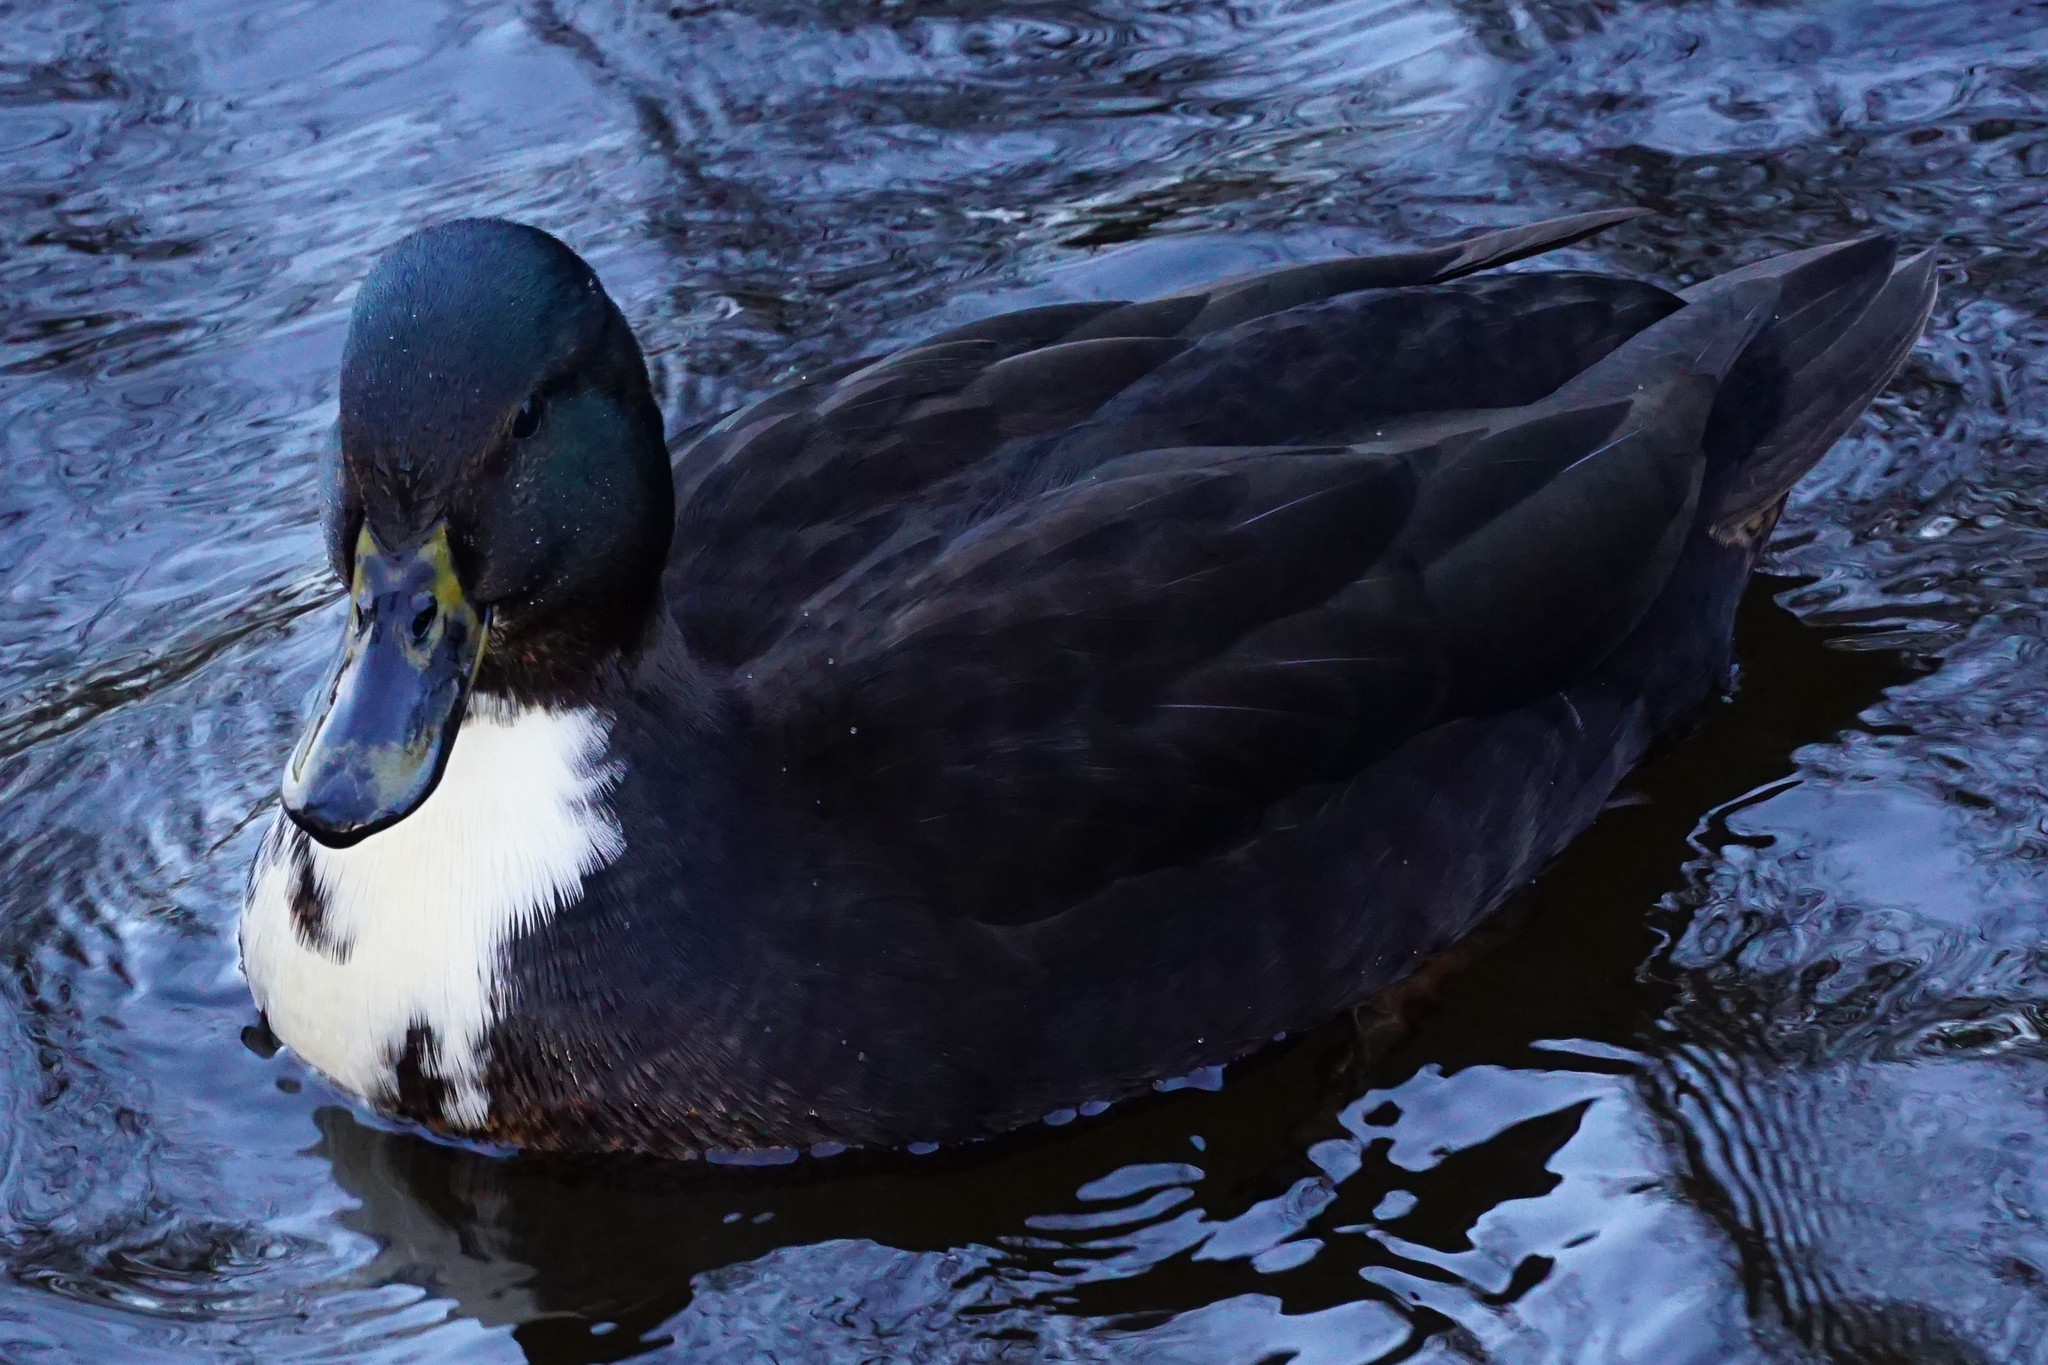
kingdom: Animalia
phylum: Chordata
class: Aves
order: Anseriformes
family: Anatidae
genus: Anas
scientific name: Anas platyrhynchos
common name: Mallard
